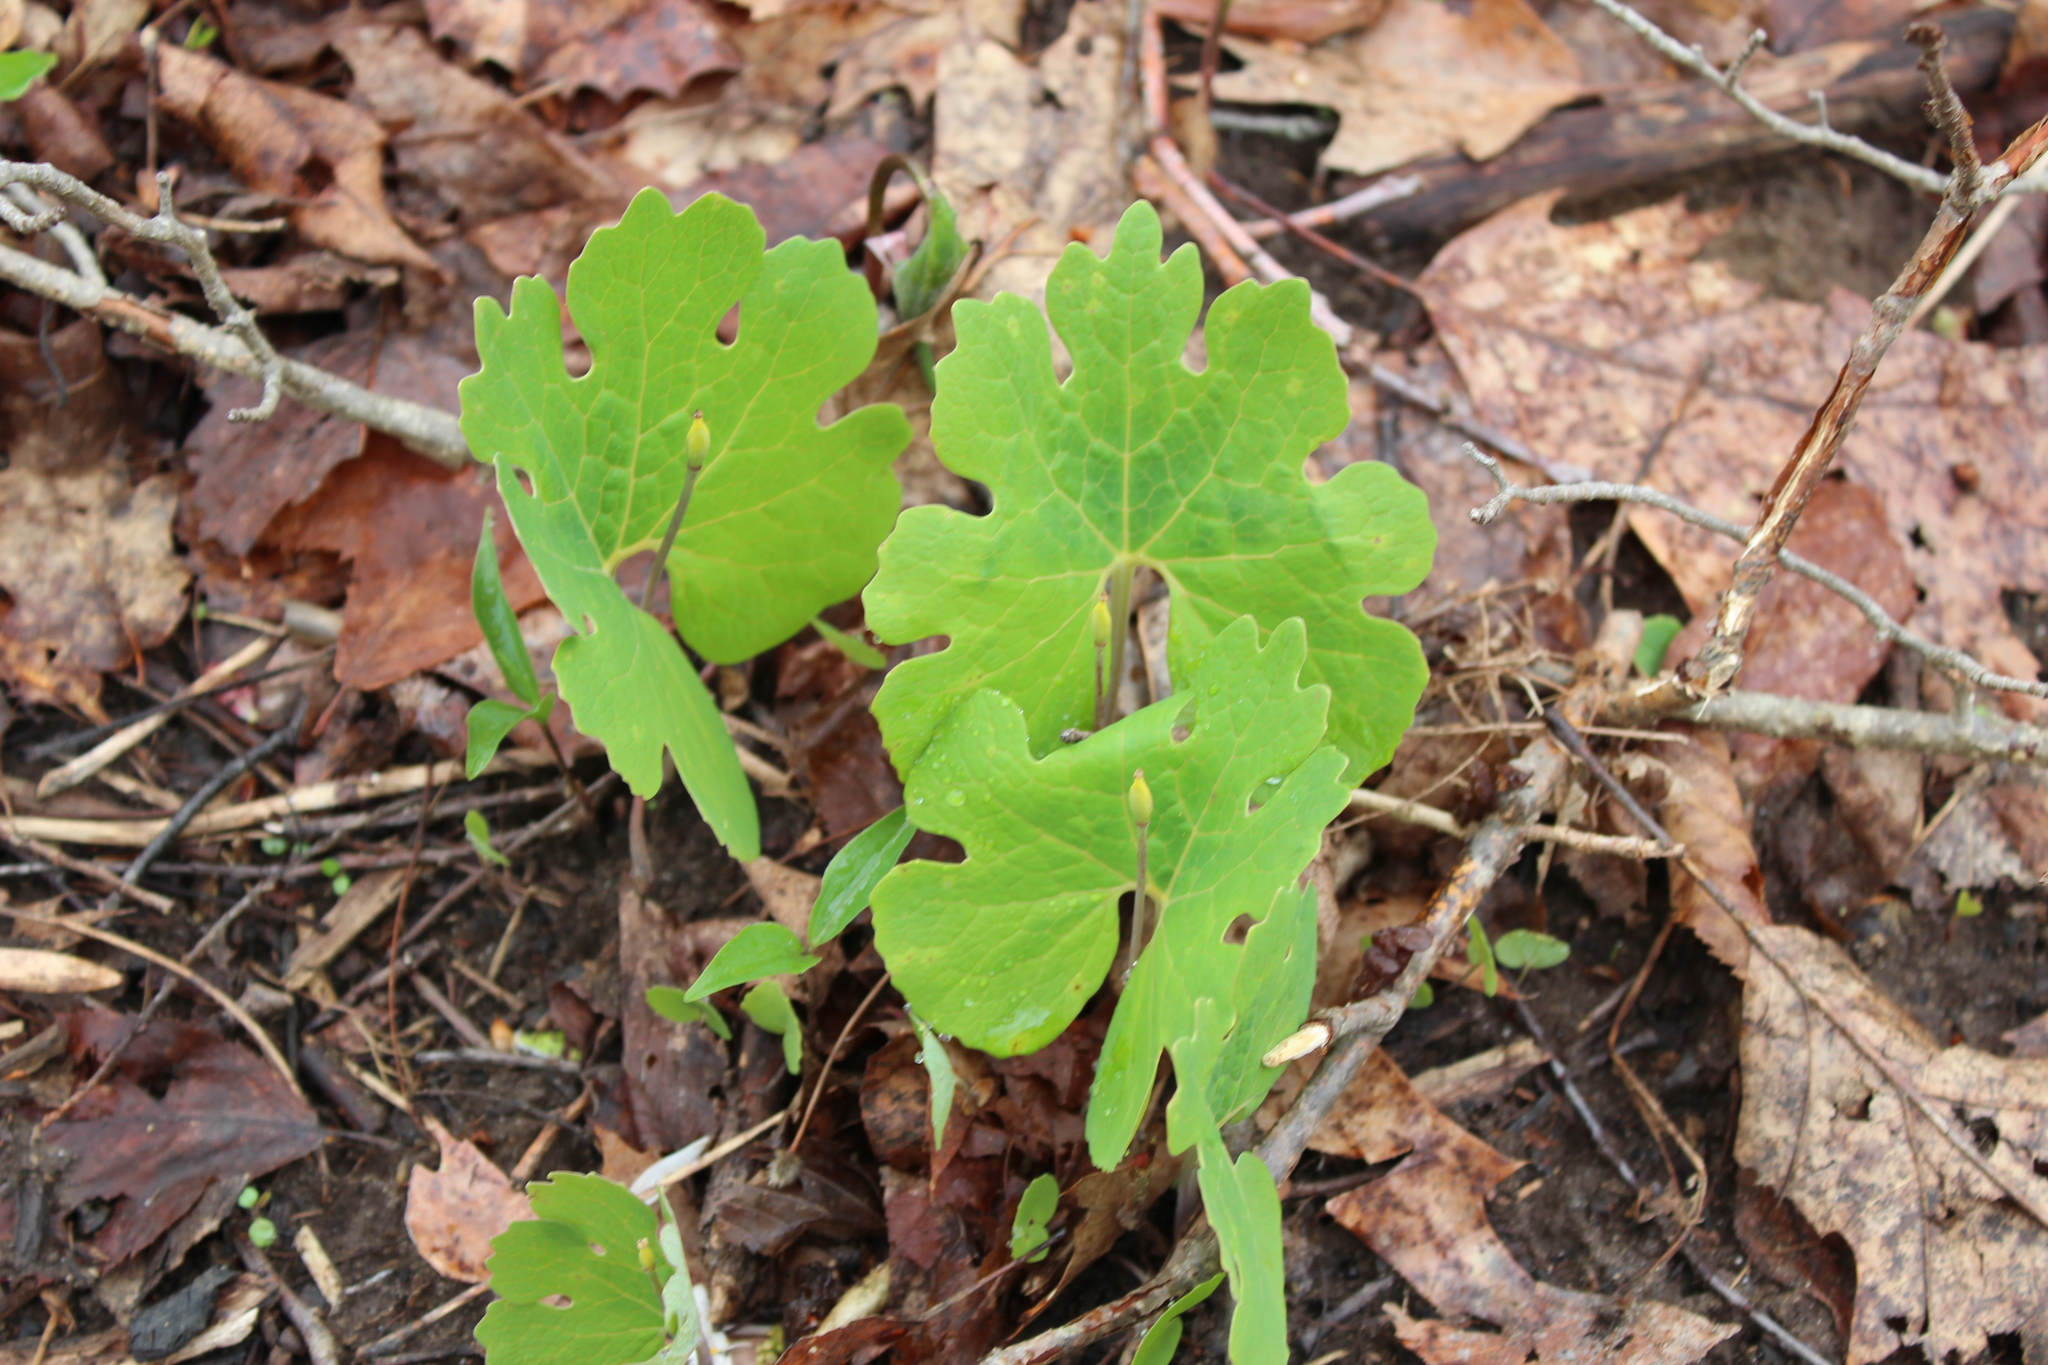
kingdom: Plantae
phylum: Tracheophyta
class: Magnoliopsida
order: Ranunculales
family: Papaveraceae
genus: Sanguinaria
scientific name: Sanguinaria canadensis
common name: Bloodroot
